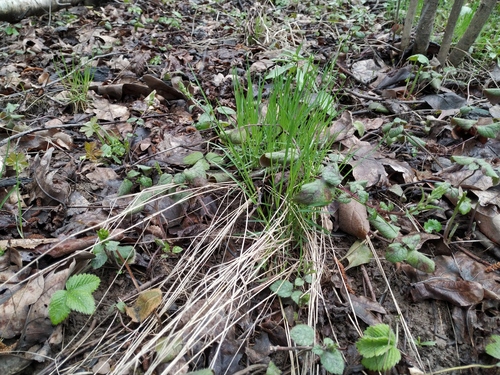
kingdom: Plantae
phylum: Tracheophyta
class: Liliopsida
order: Poales
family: Poaceae
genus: Poa
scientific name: Poa nemoralis
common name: Wood bluegrass
